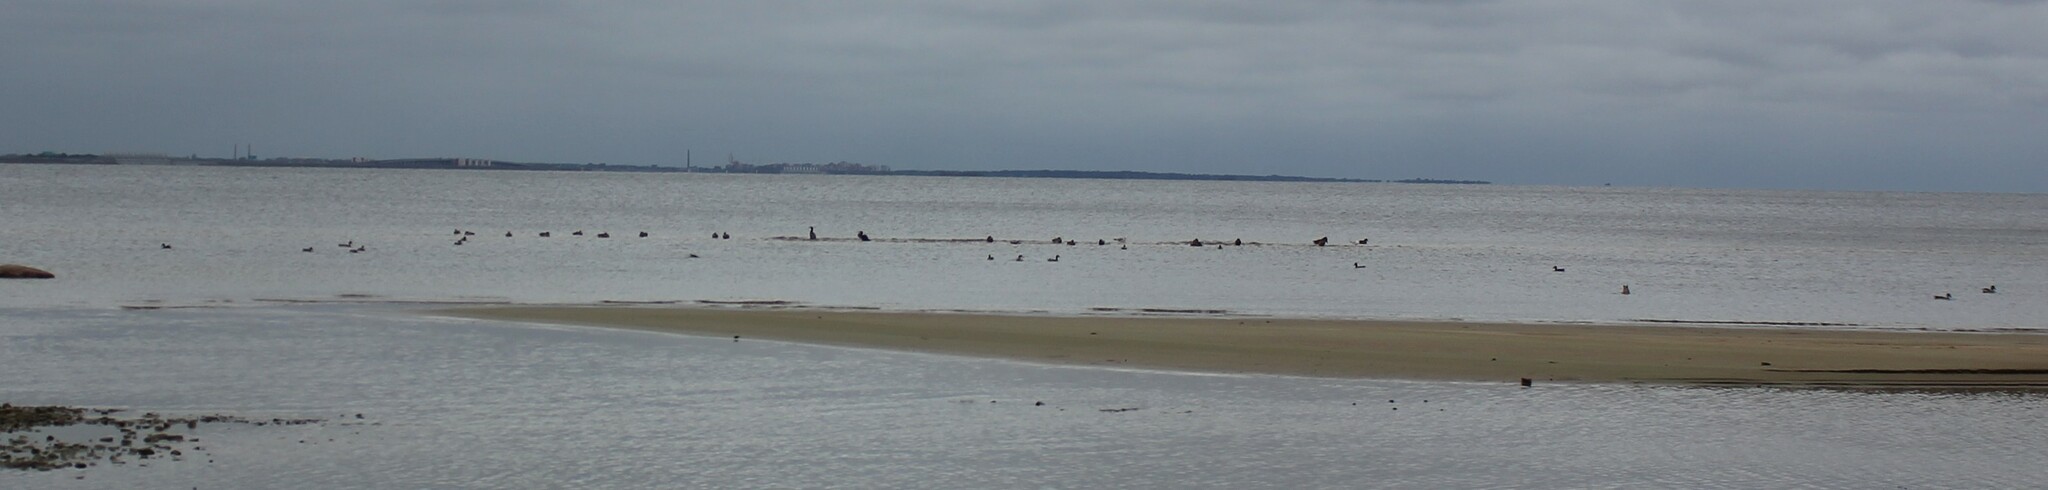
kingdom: Animalia
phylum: Chordata
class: Aves
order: Suliformes
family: Phalacrocoracidae
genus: Phalacrocorax
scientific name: Phalacrocorax carbo
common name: Great cormorant
